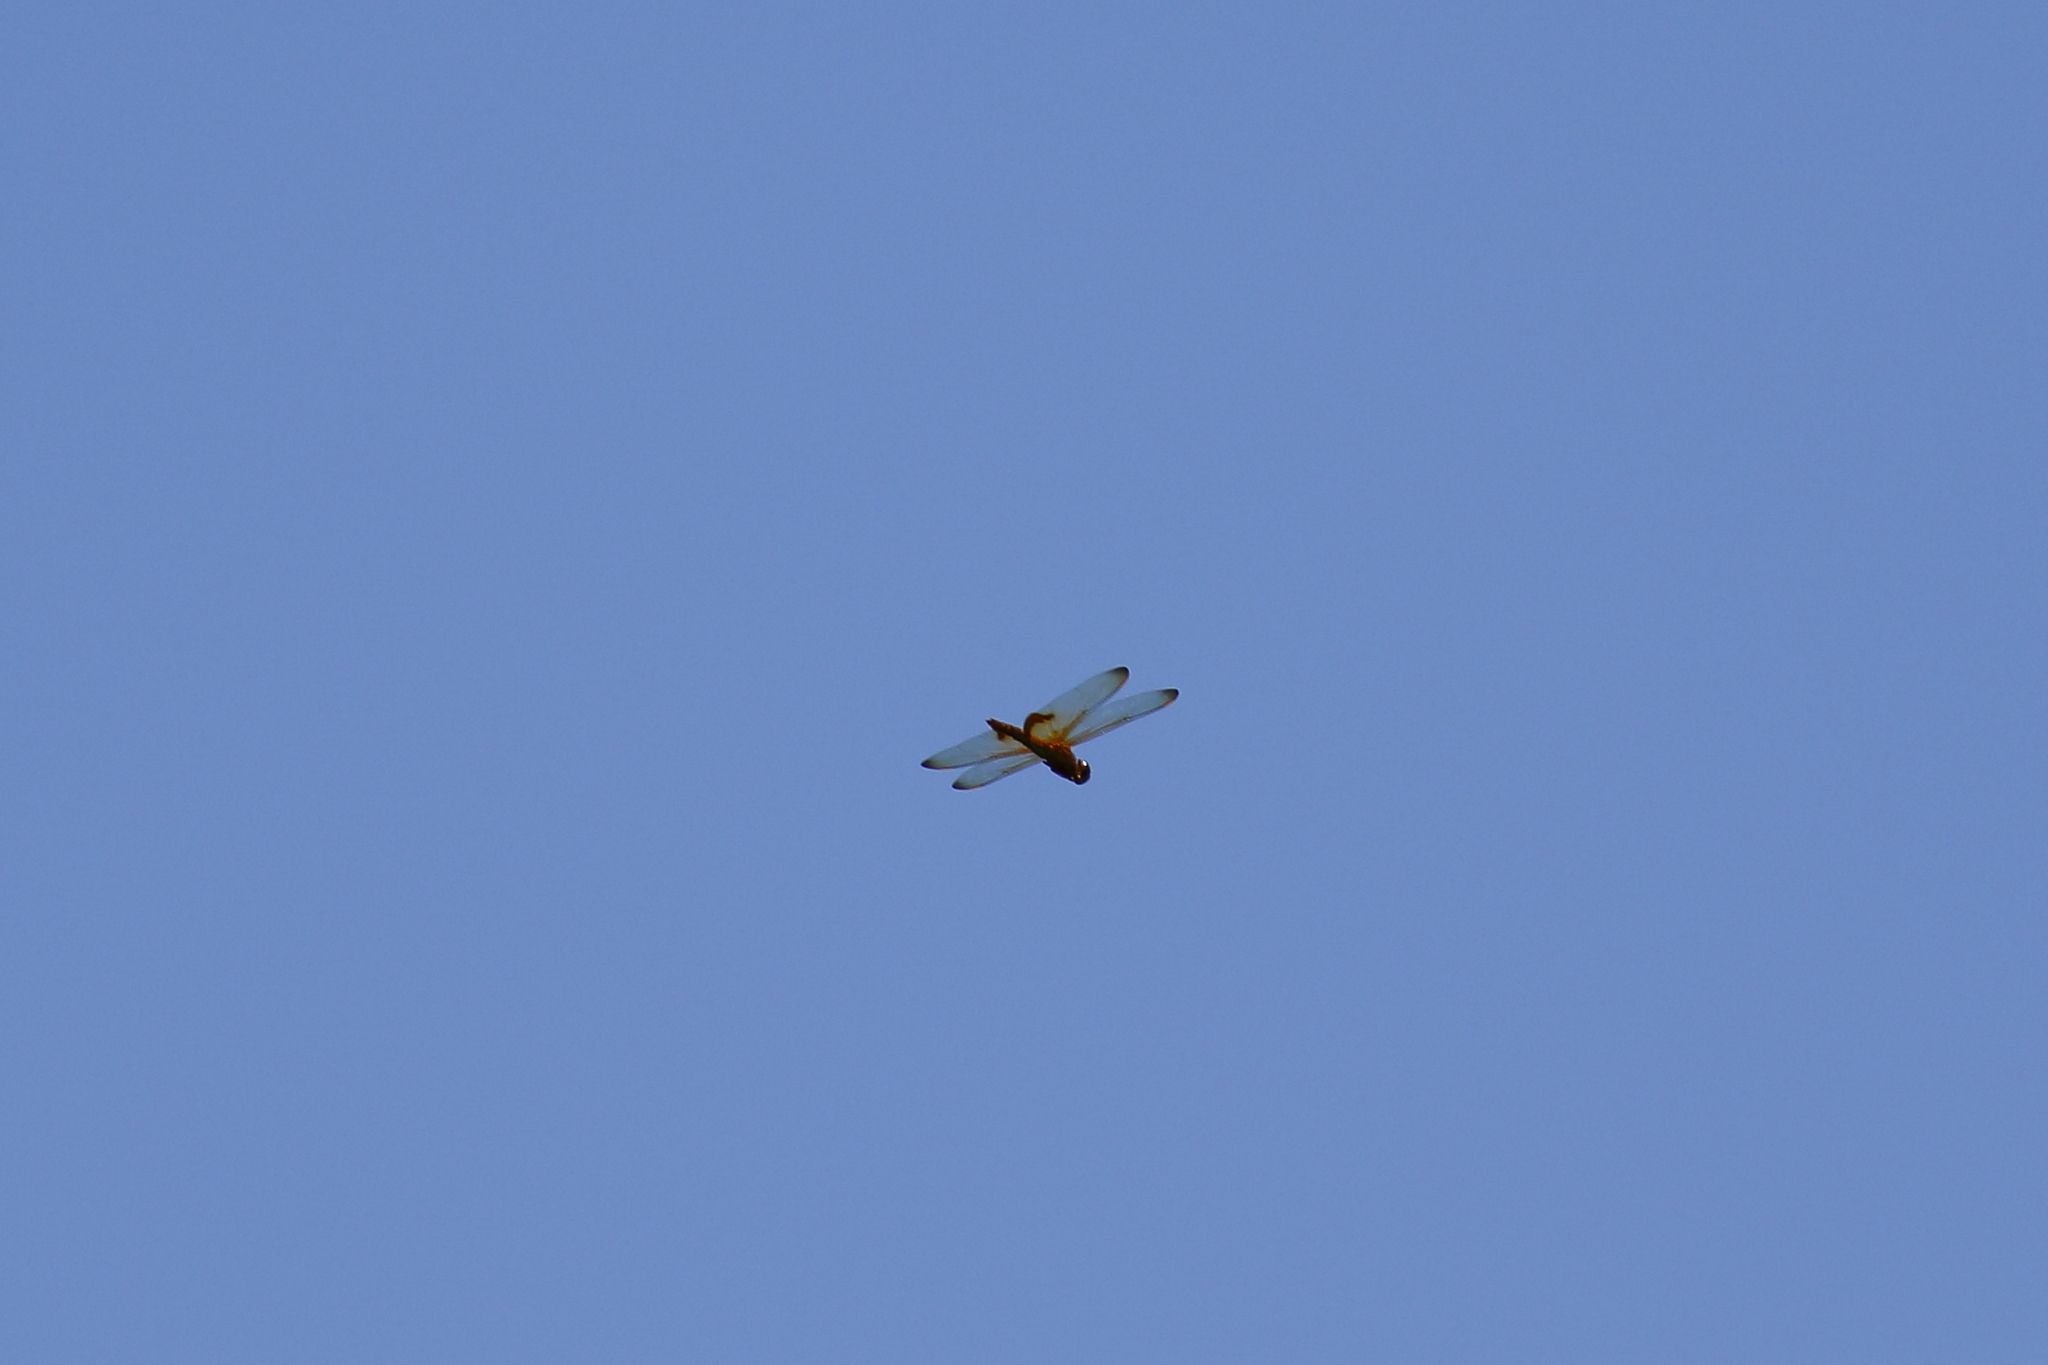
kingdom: Animalia
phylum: Arthropoda
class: Insecta
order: Odonata
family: Libellulidae
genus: Hydrobasileus
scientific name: Hydrobasileus croceus
